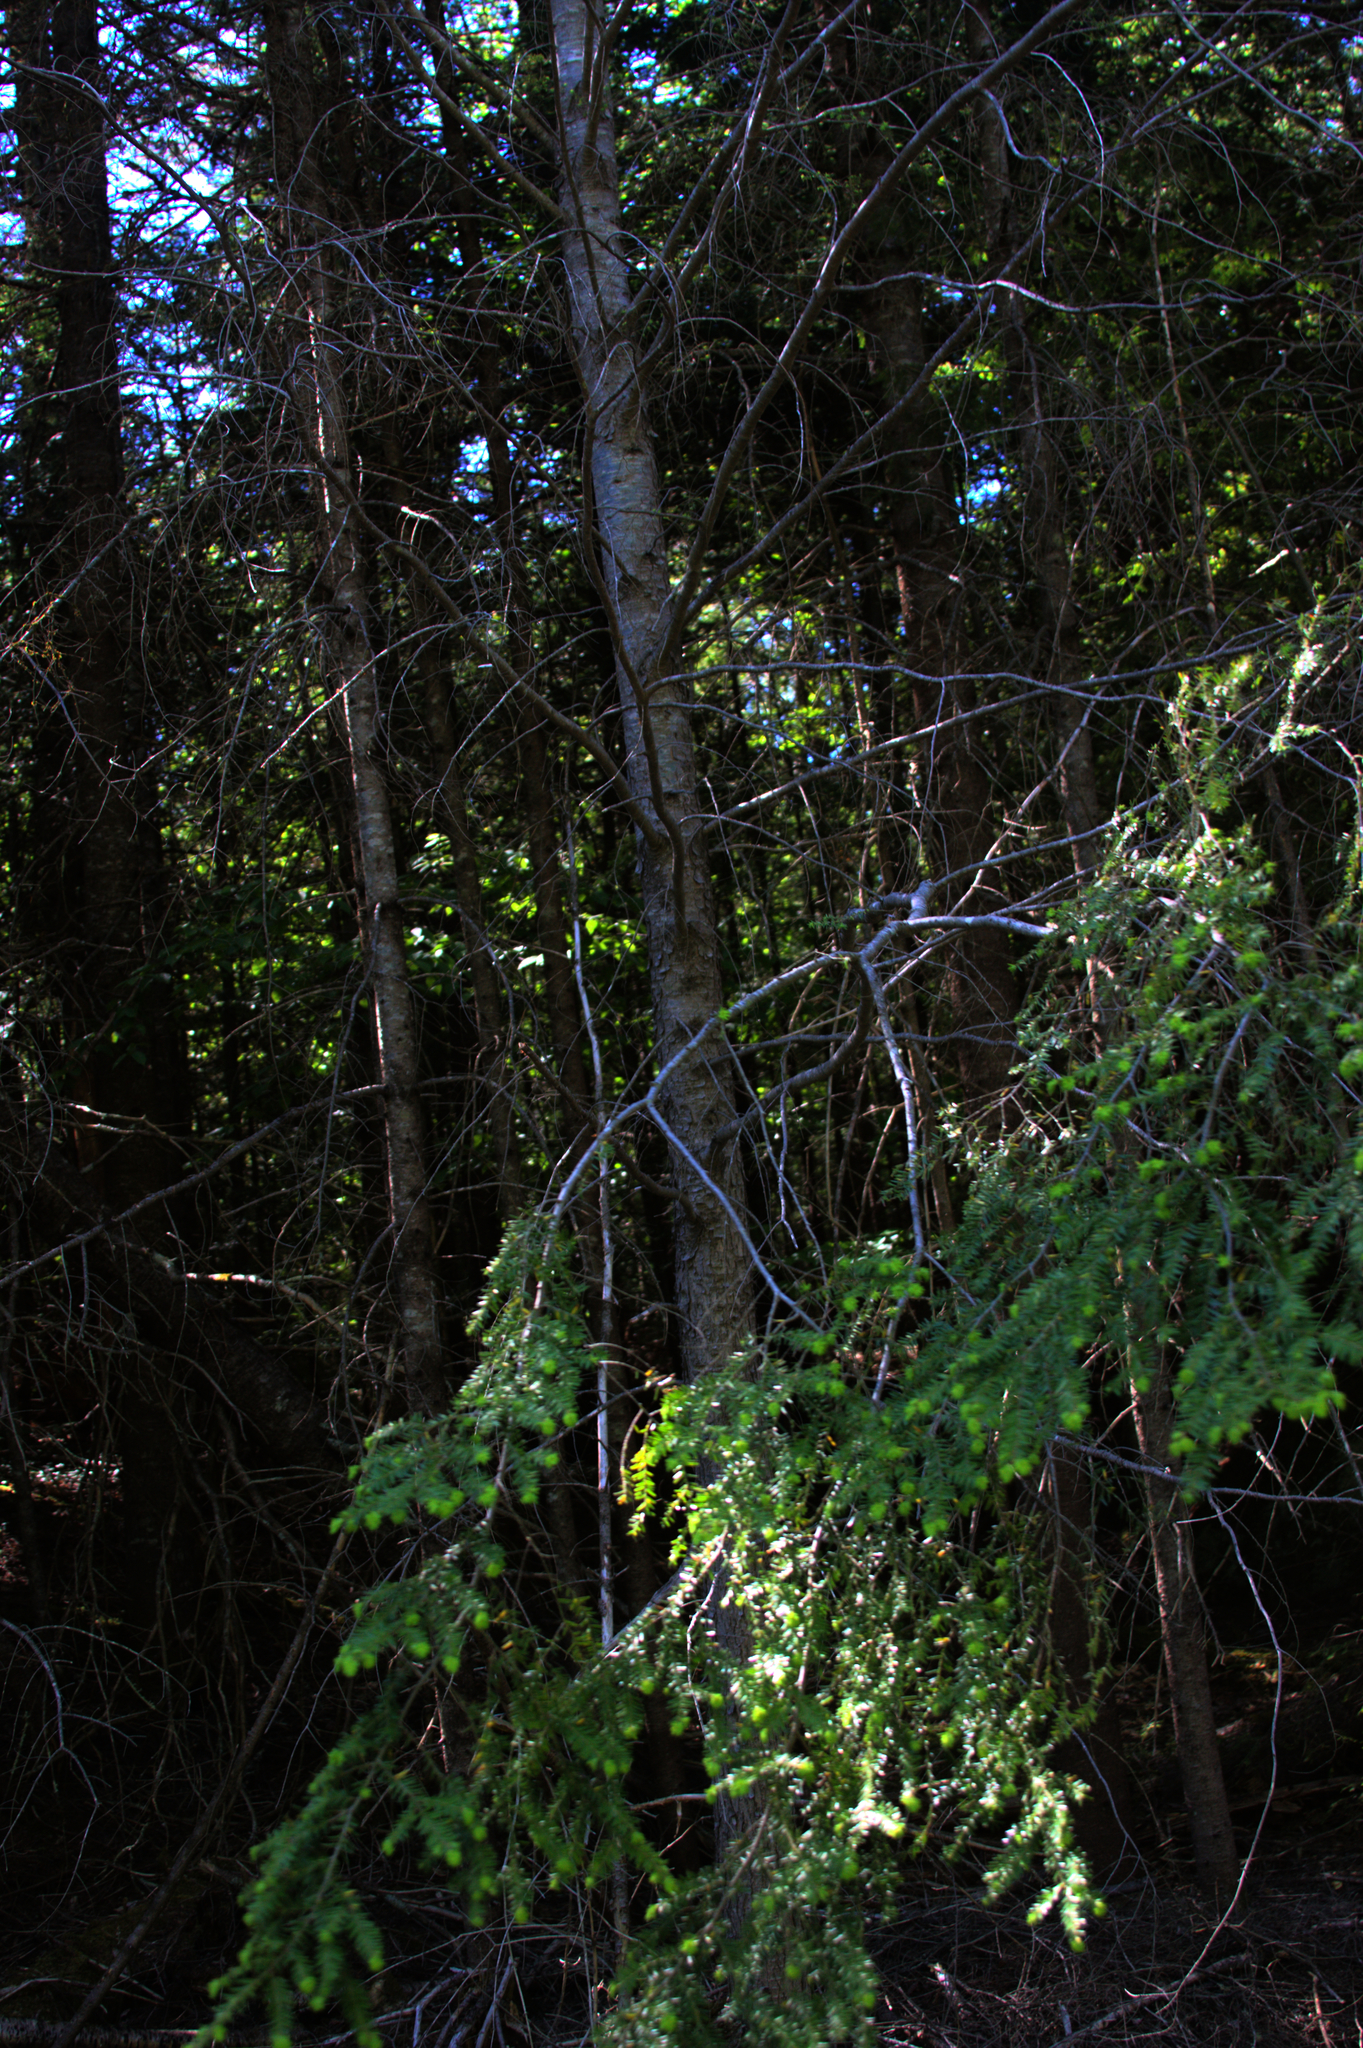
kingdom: Plantae
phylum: Tracheophyta
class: Pinopsida
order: Pinales
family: Pinaceae
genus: Tsuga
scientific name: Tsuga canadensis
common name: Eastern hemlock
